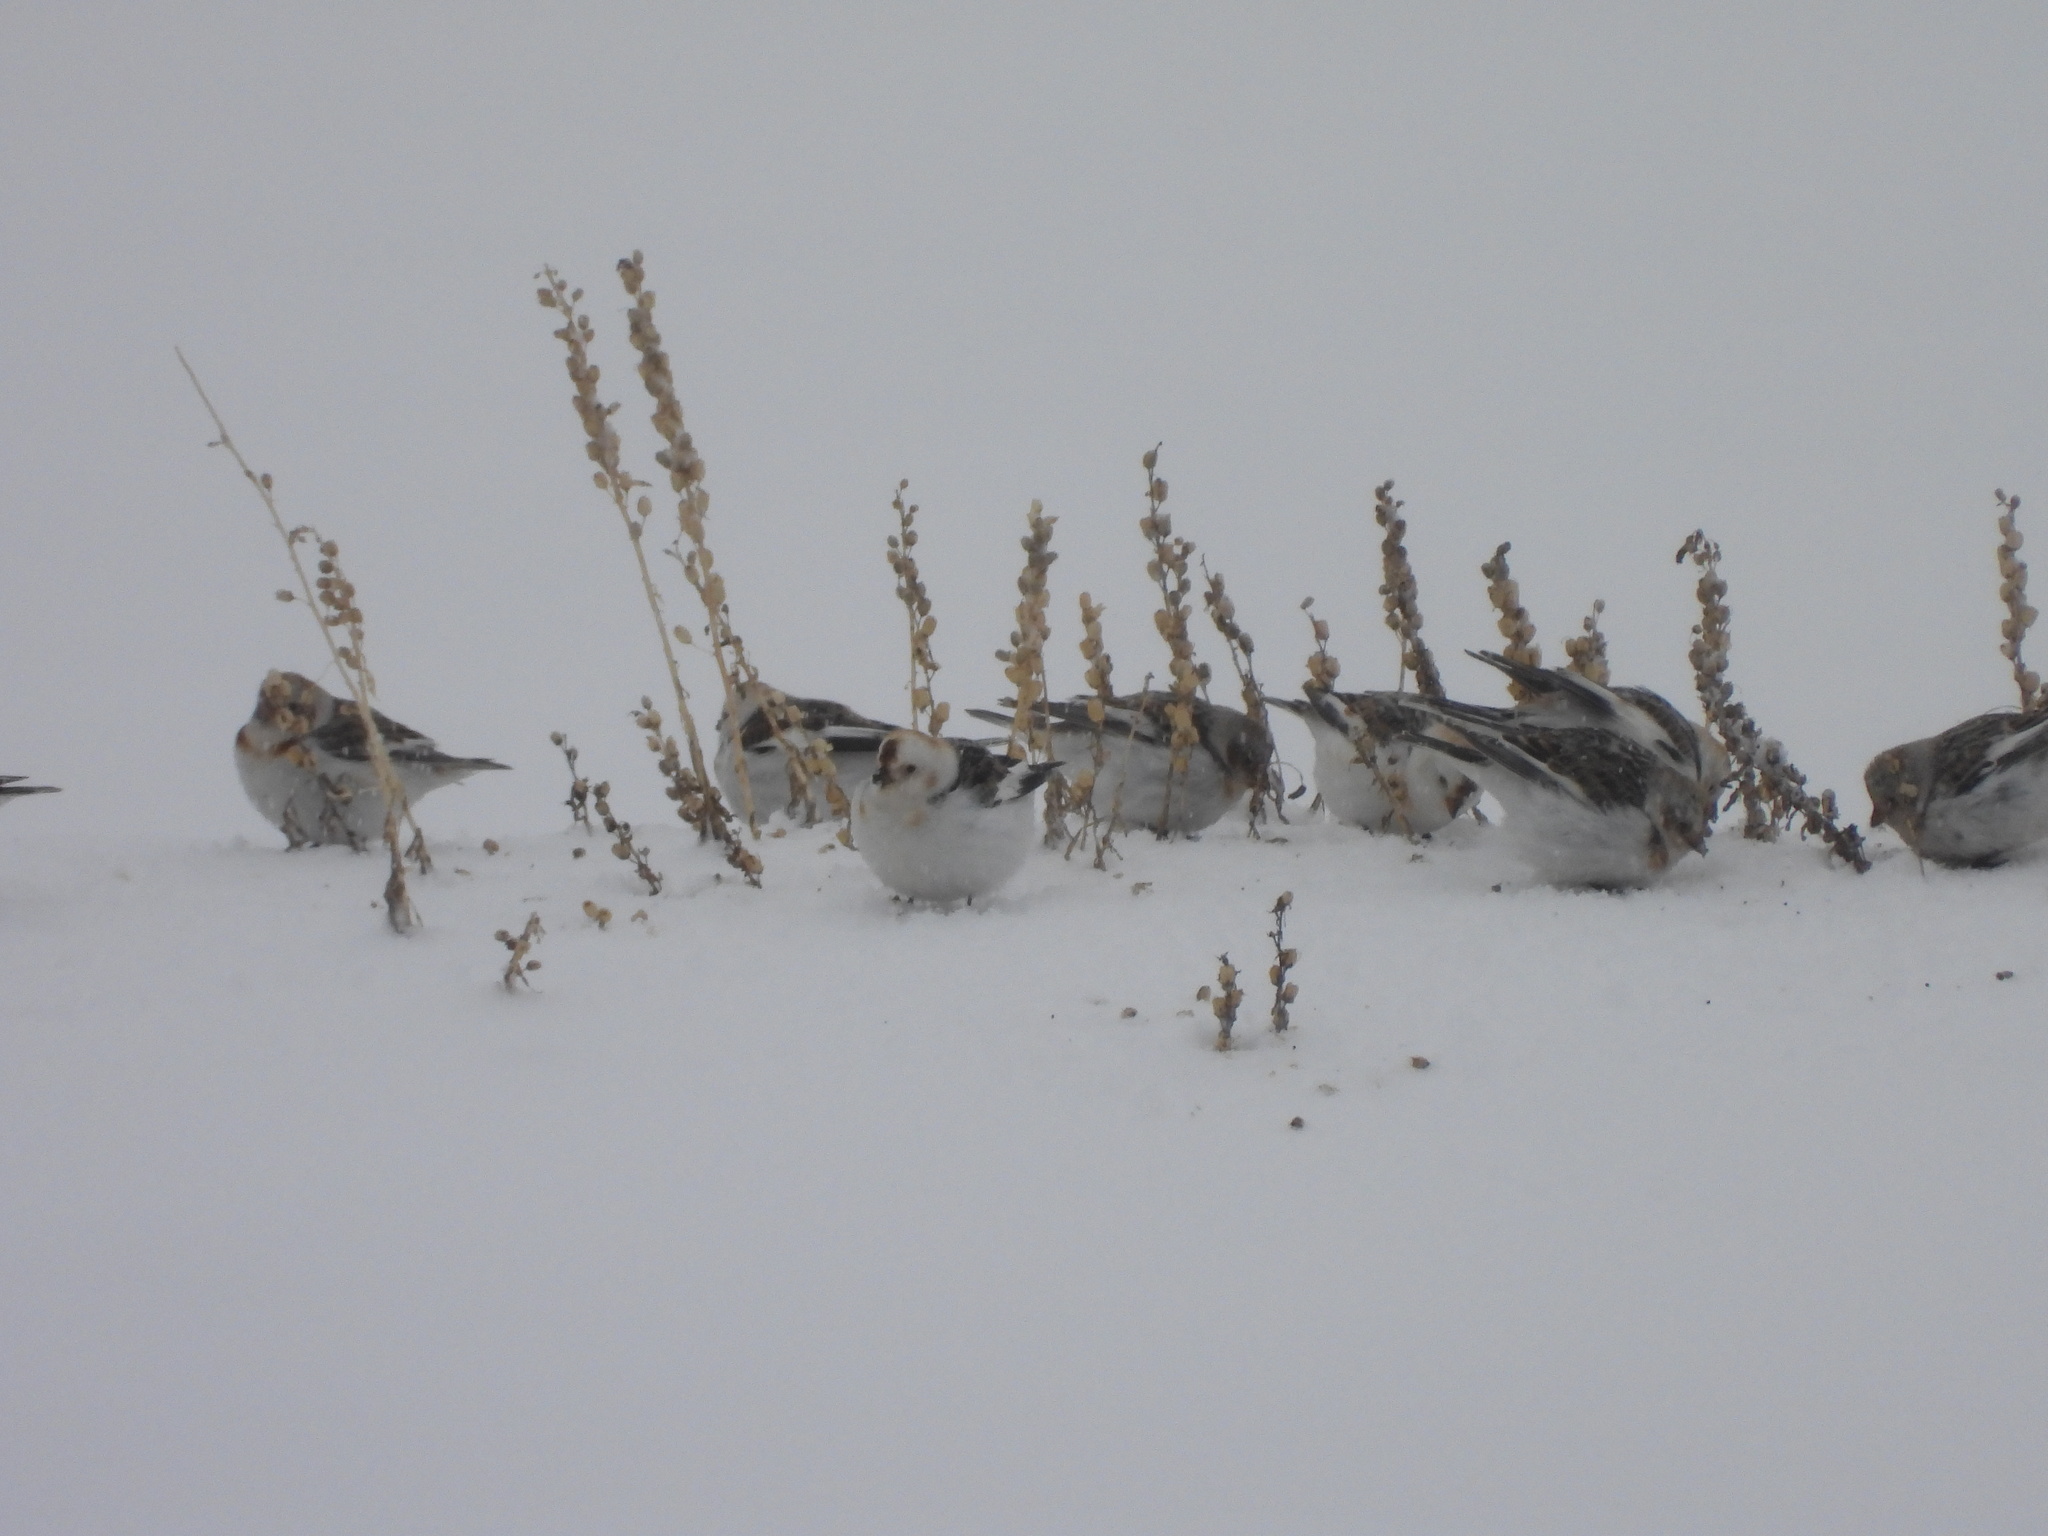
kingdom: Animalia
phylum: Chordata
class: Aves
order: Passeriformes
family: Calcariidae
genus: Plectrophenax
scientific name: Plectrophenax nivalis
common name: Snow bunting
